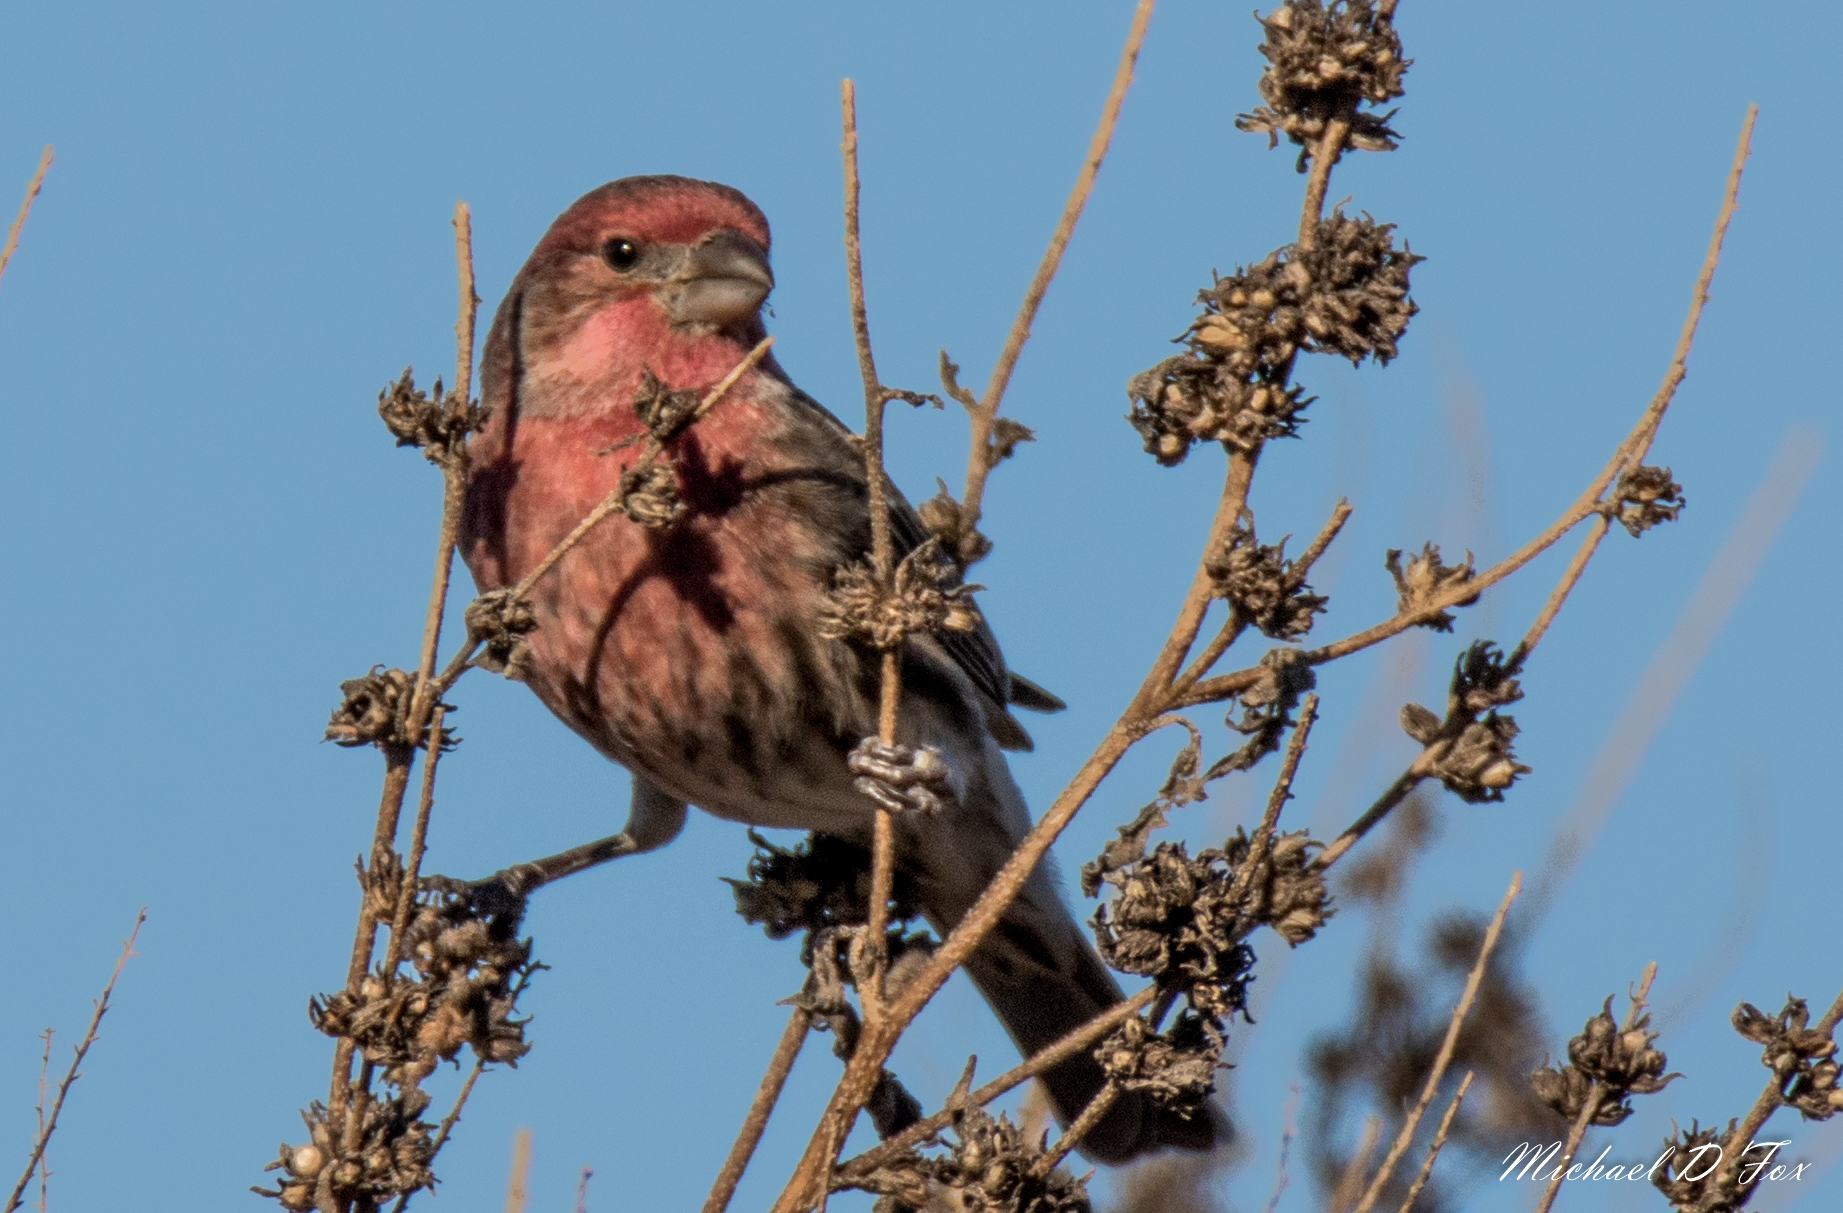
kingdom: Animalia
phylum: Chordata
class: Aves
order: Passeriformes
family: Fringillidae
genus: Haemorhous
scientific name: Haemorhous mexicanus
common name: House finch
